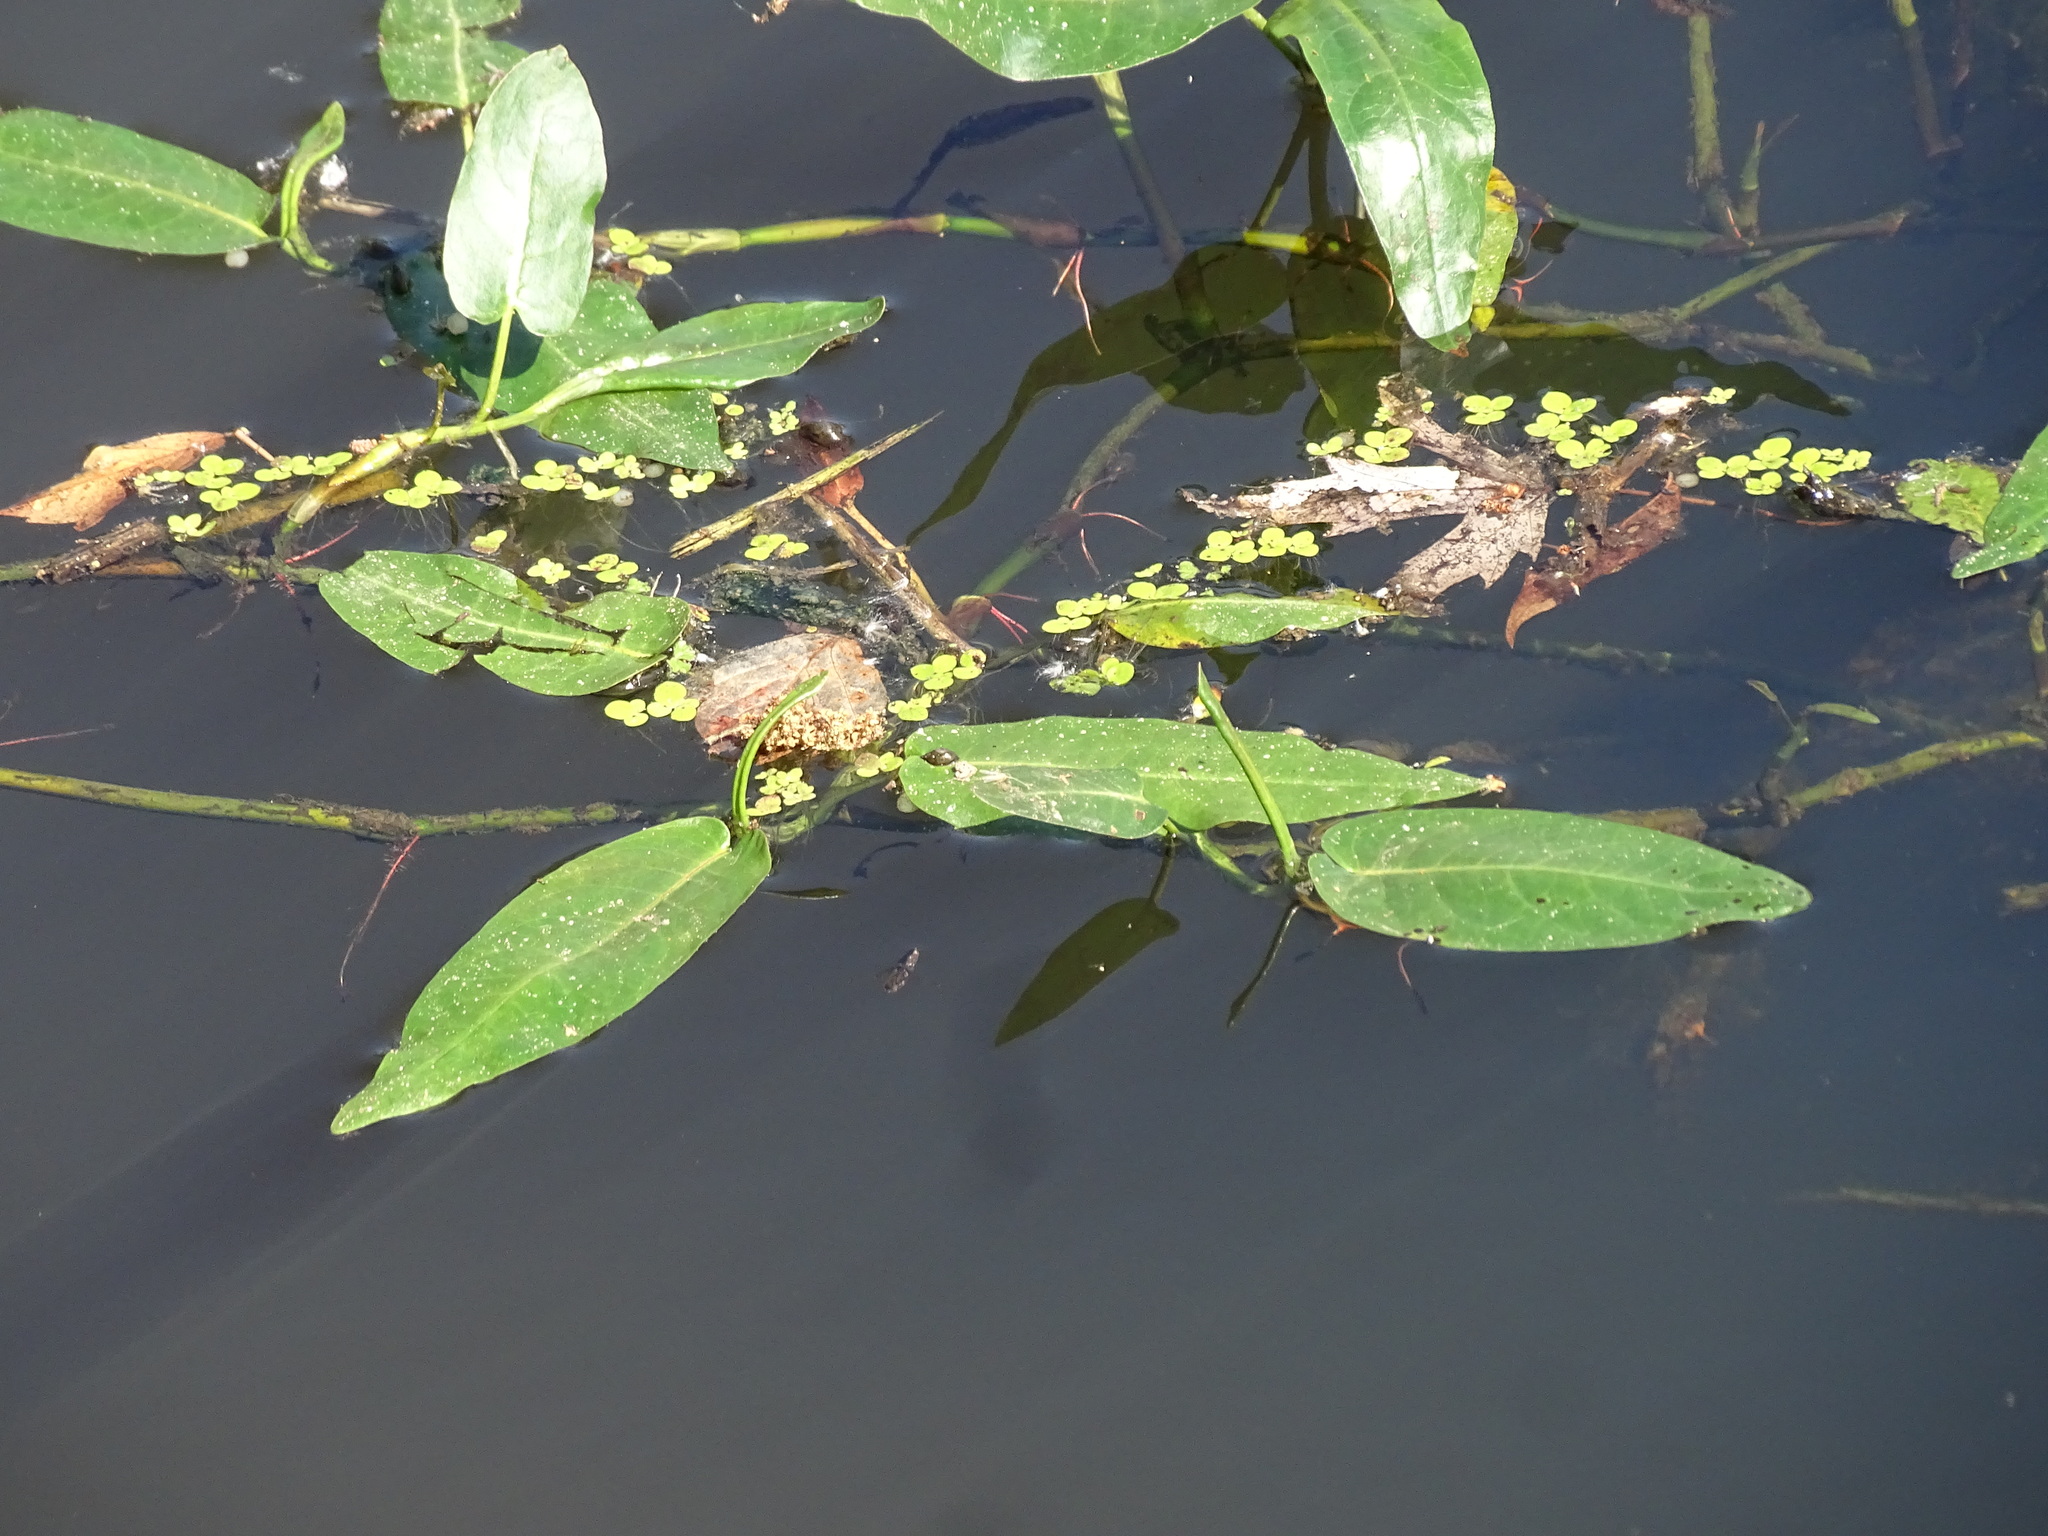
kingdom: Plantae
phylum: Tracheophyta
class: Magnoliopsida
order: Caryophyllales
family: Polygonaceae
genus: Persicaria
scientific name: Persicaria amphibia
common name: Amphibious bistort
